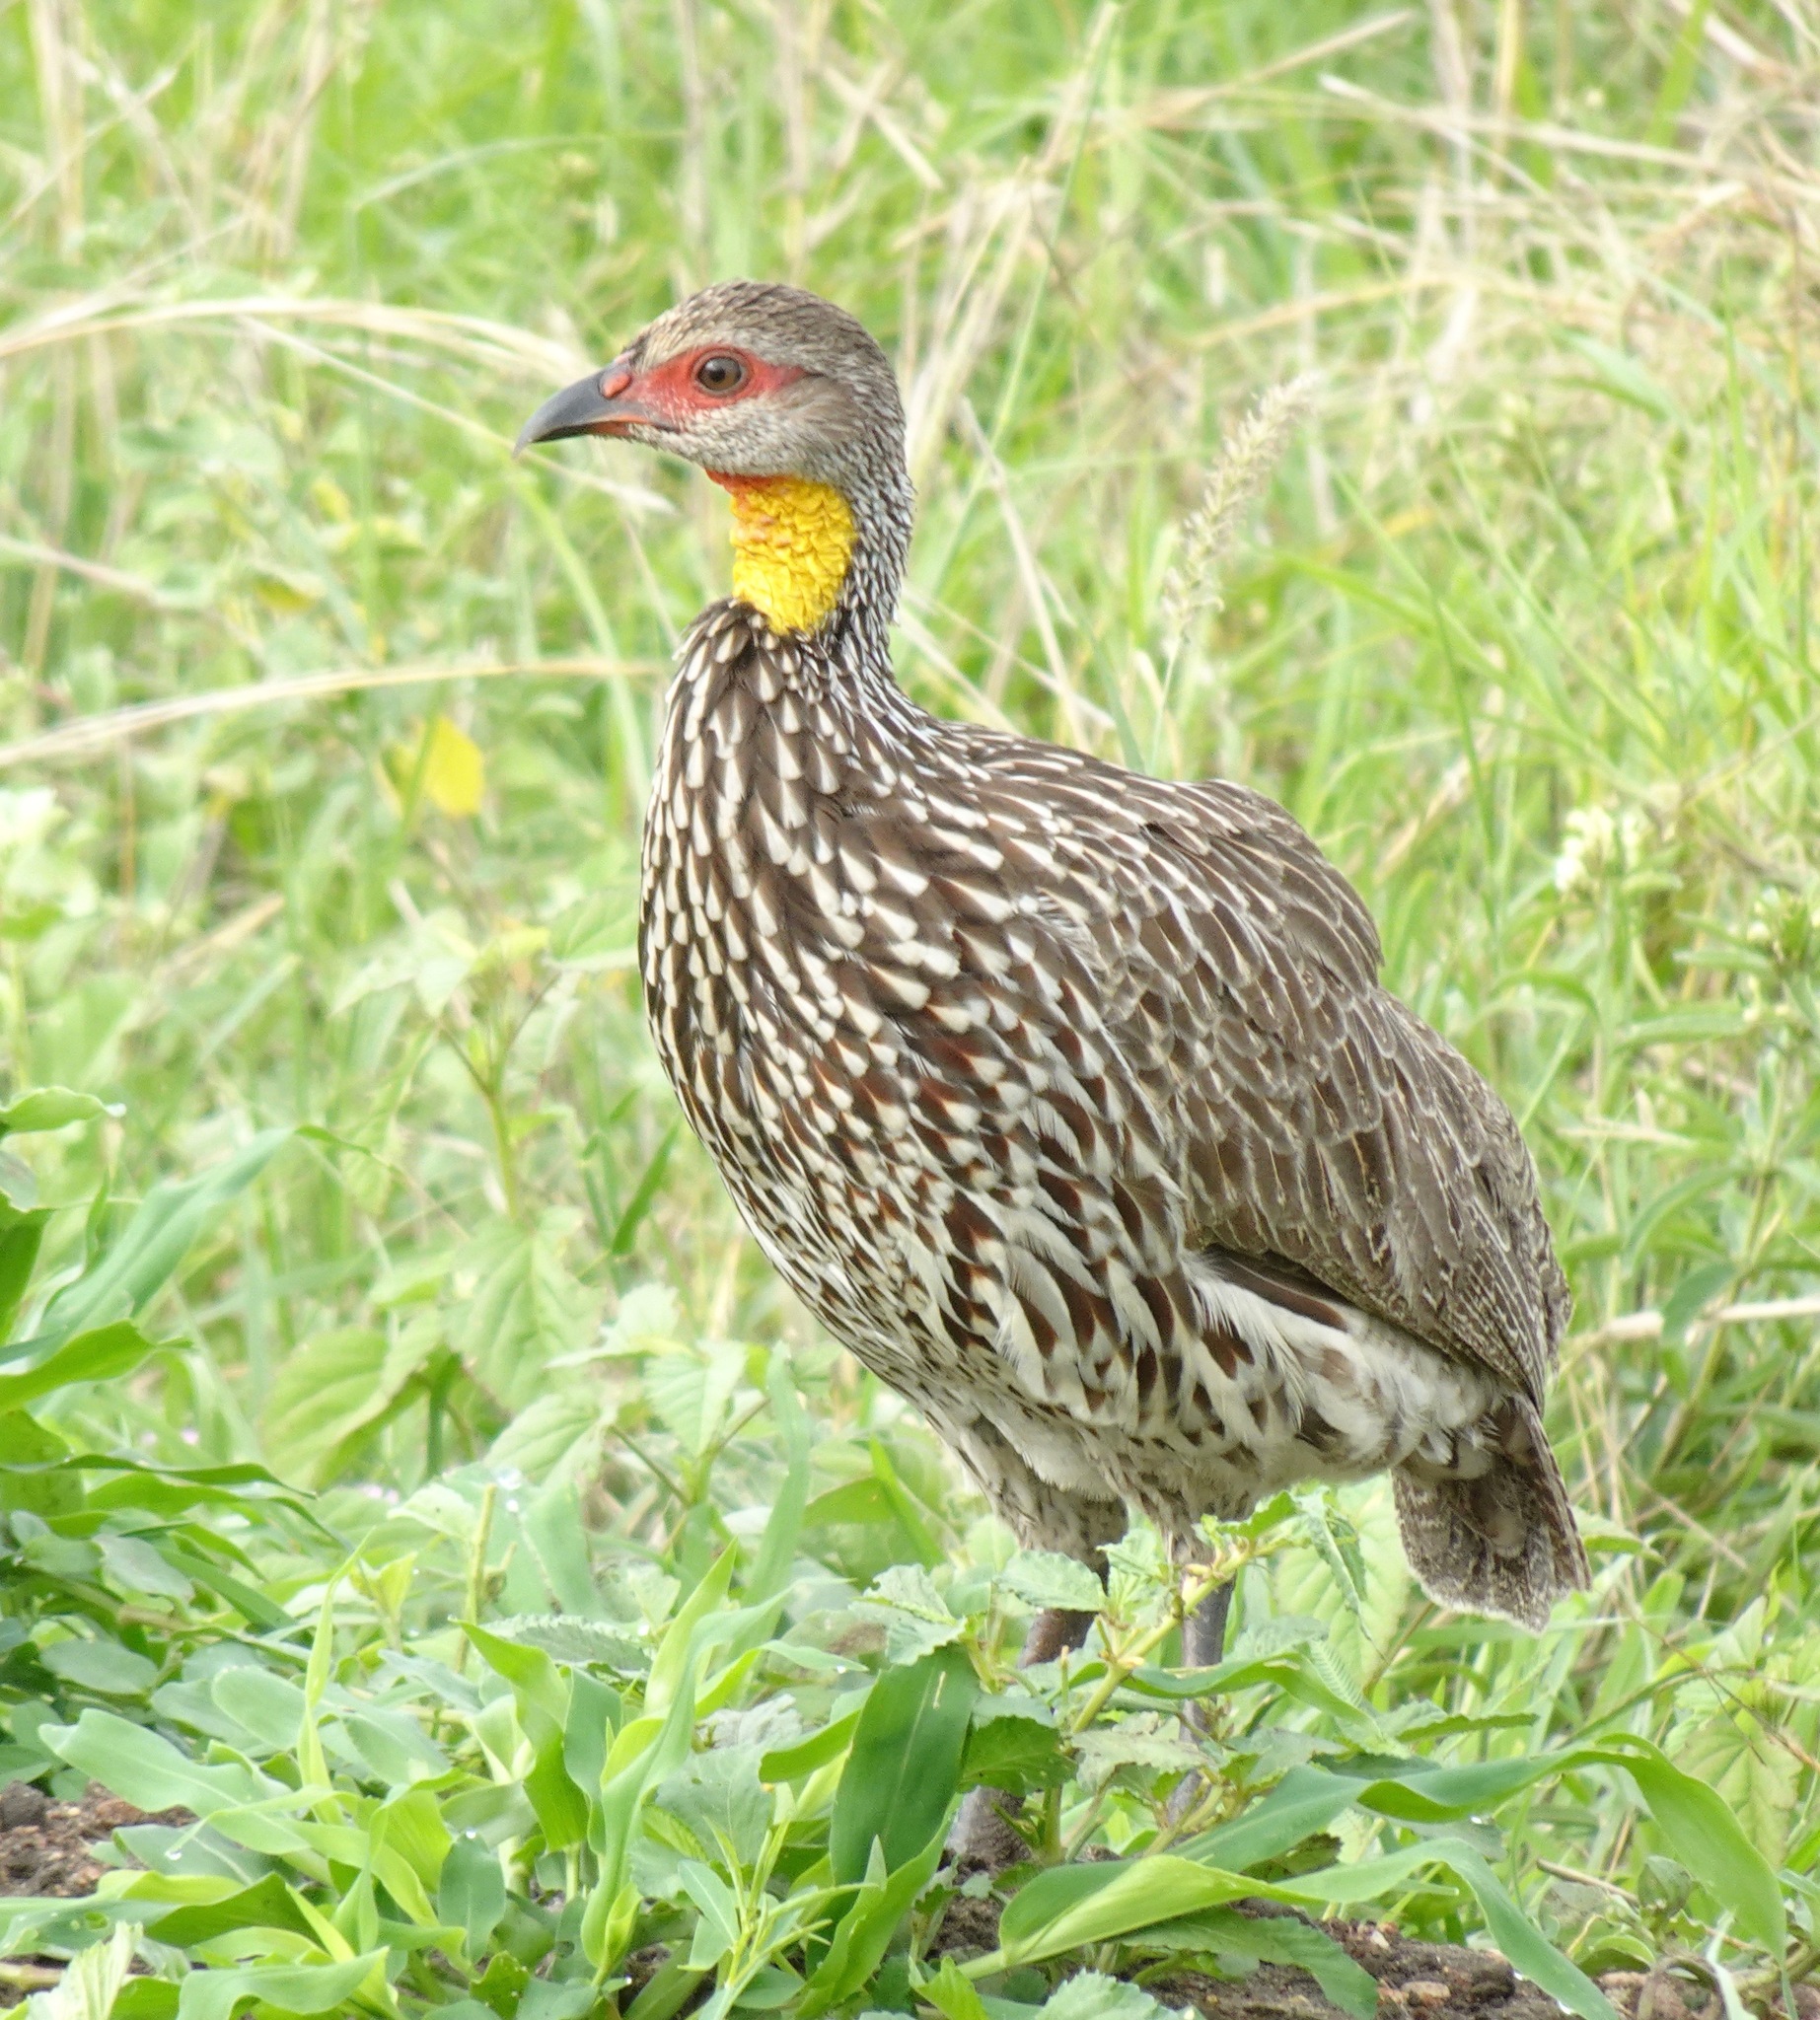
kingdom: Animalia
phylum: Chordata
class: Aves
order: Galliformes
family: Phasianidae
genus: Pternistis
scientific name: Pternistis leucoscepus
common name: Yellow-necked spurfowl
